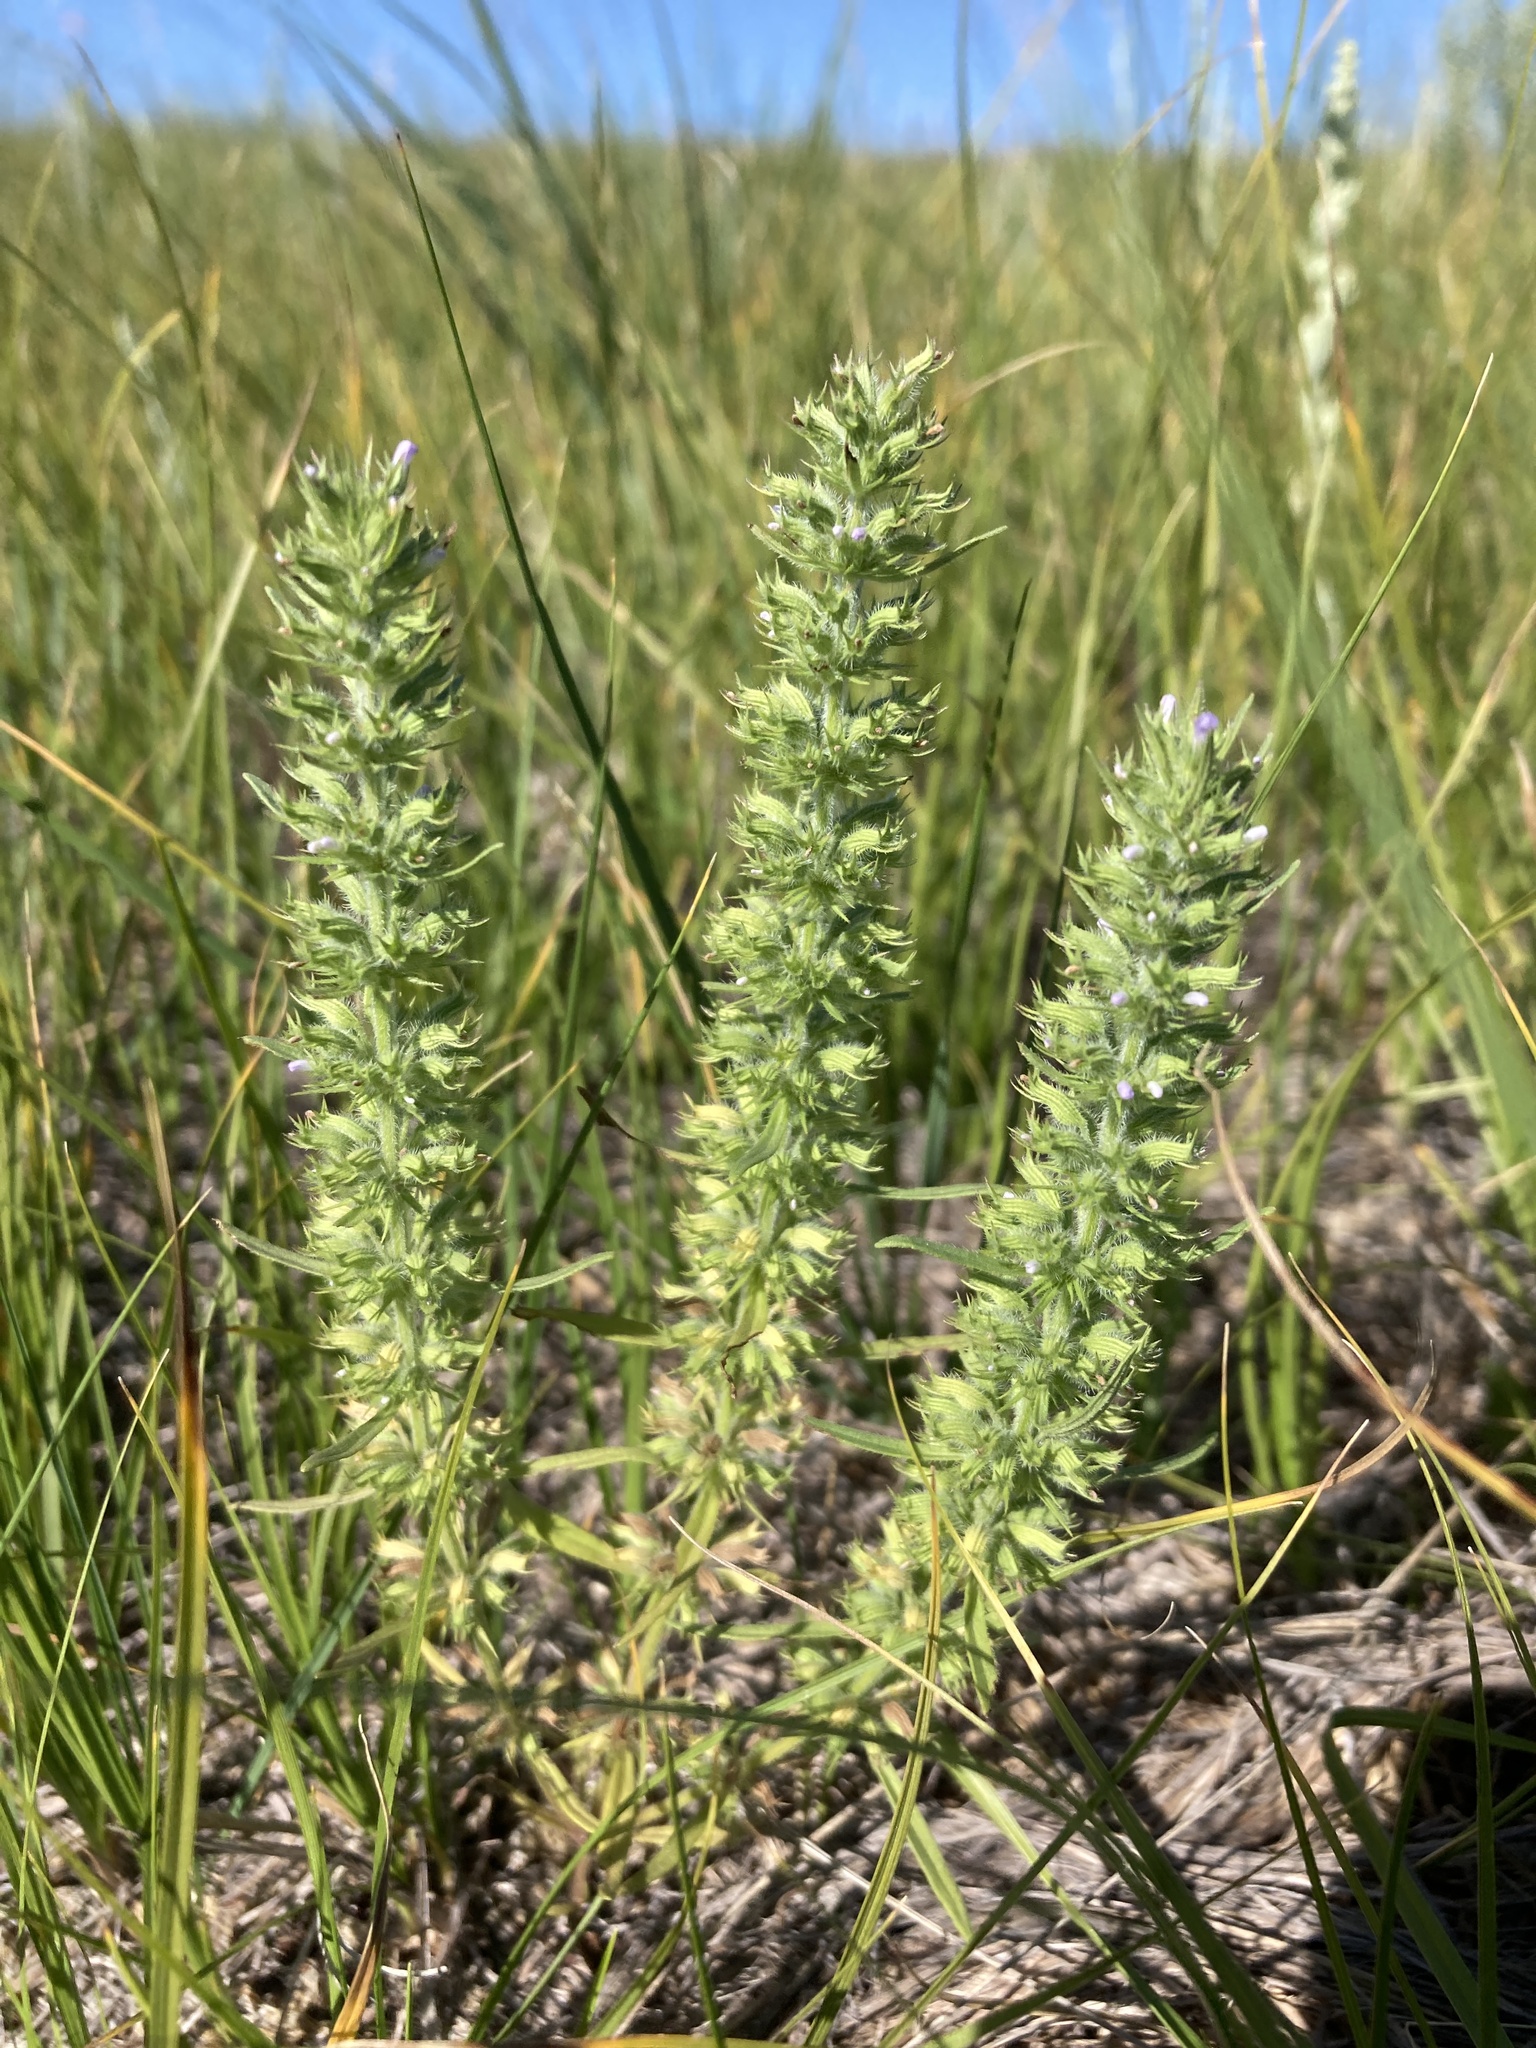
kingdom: Plantae
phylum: Tracheophyta
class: Magnoliopsida
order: Lamiales
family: Lamiaceae
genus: Hedeoma
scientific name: Hedeoma hispida
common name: Mock pennyroyal
